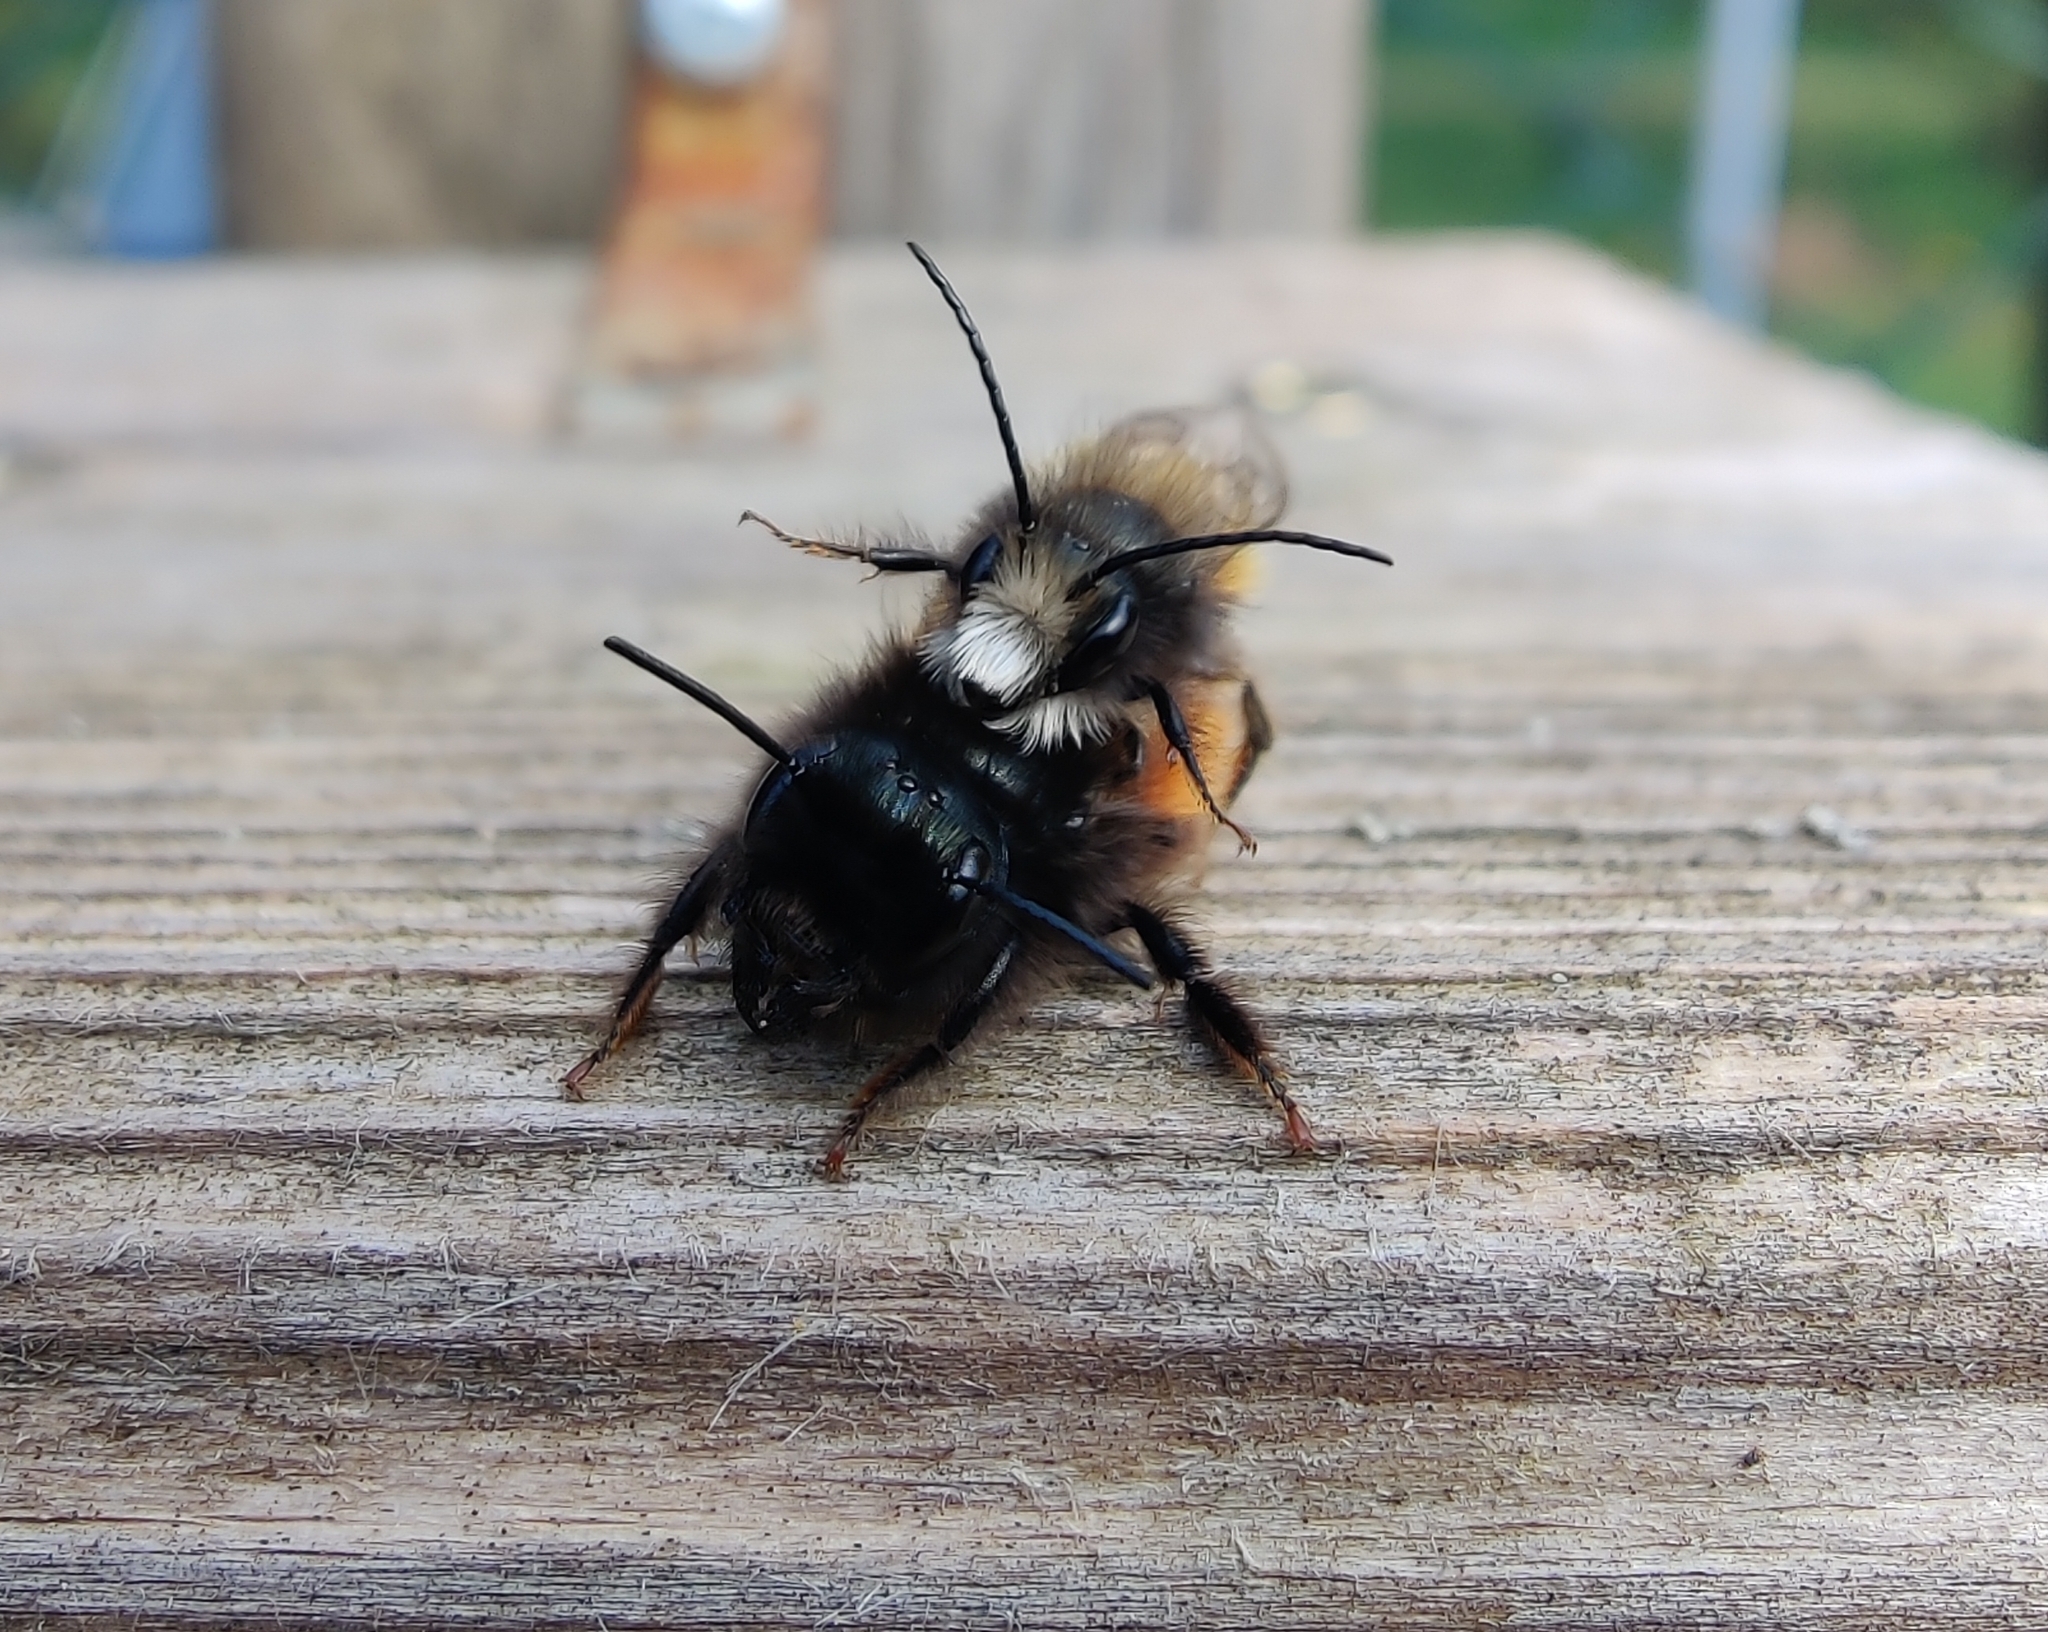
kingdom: Animalia
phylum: Arthropoda
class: Insecta
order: Hymenoptera
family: Megachilidae
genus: Osmia
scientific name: Osmia cornuta
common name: Mason bee
